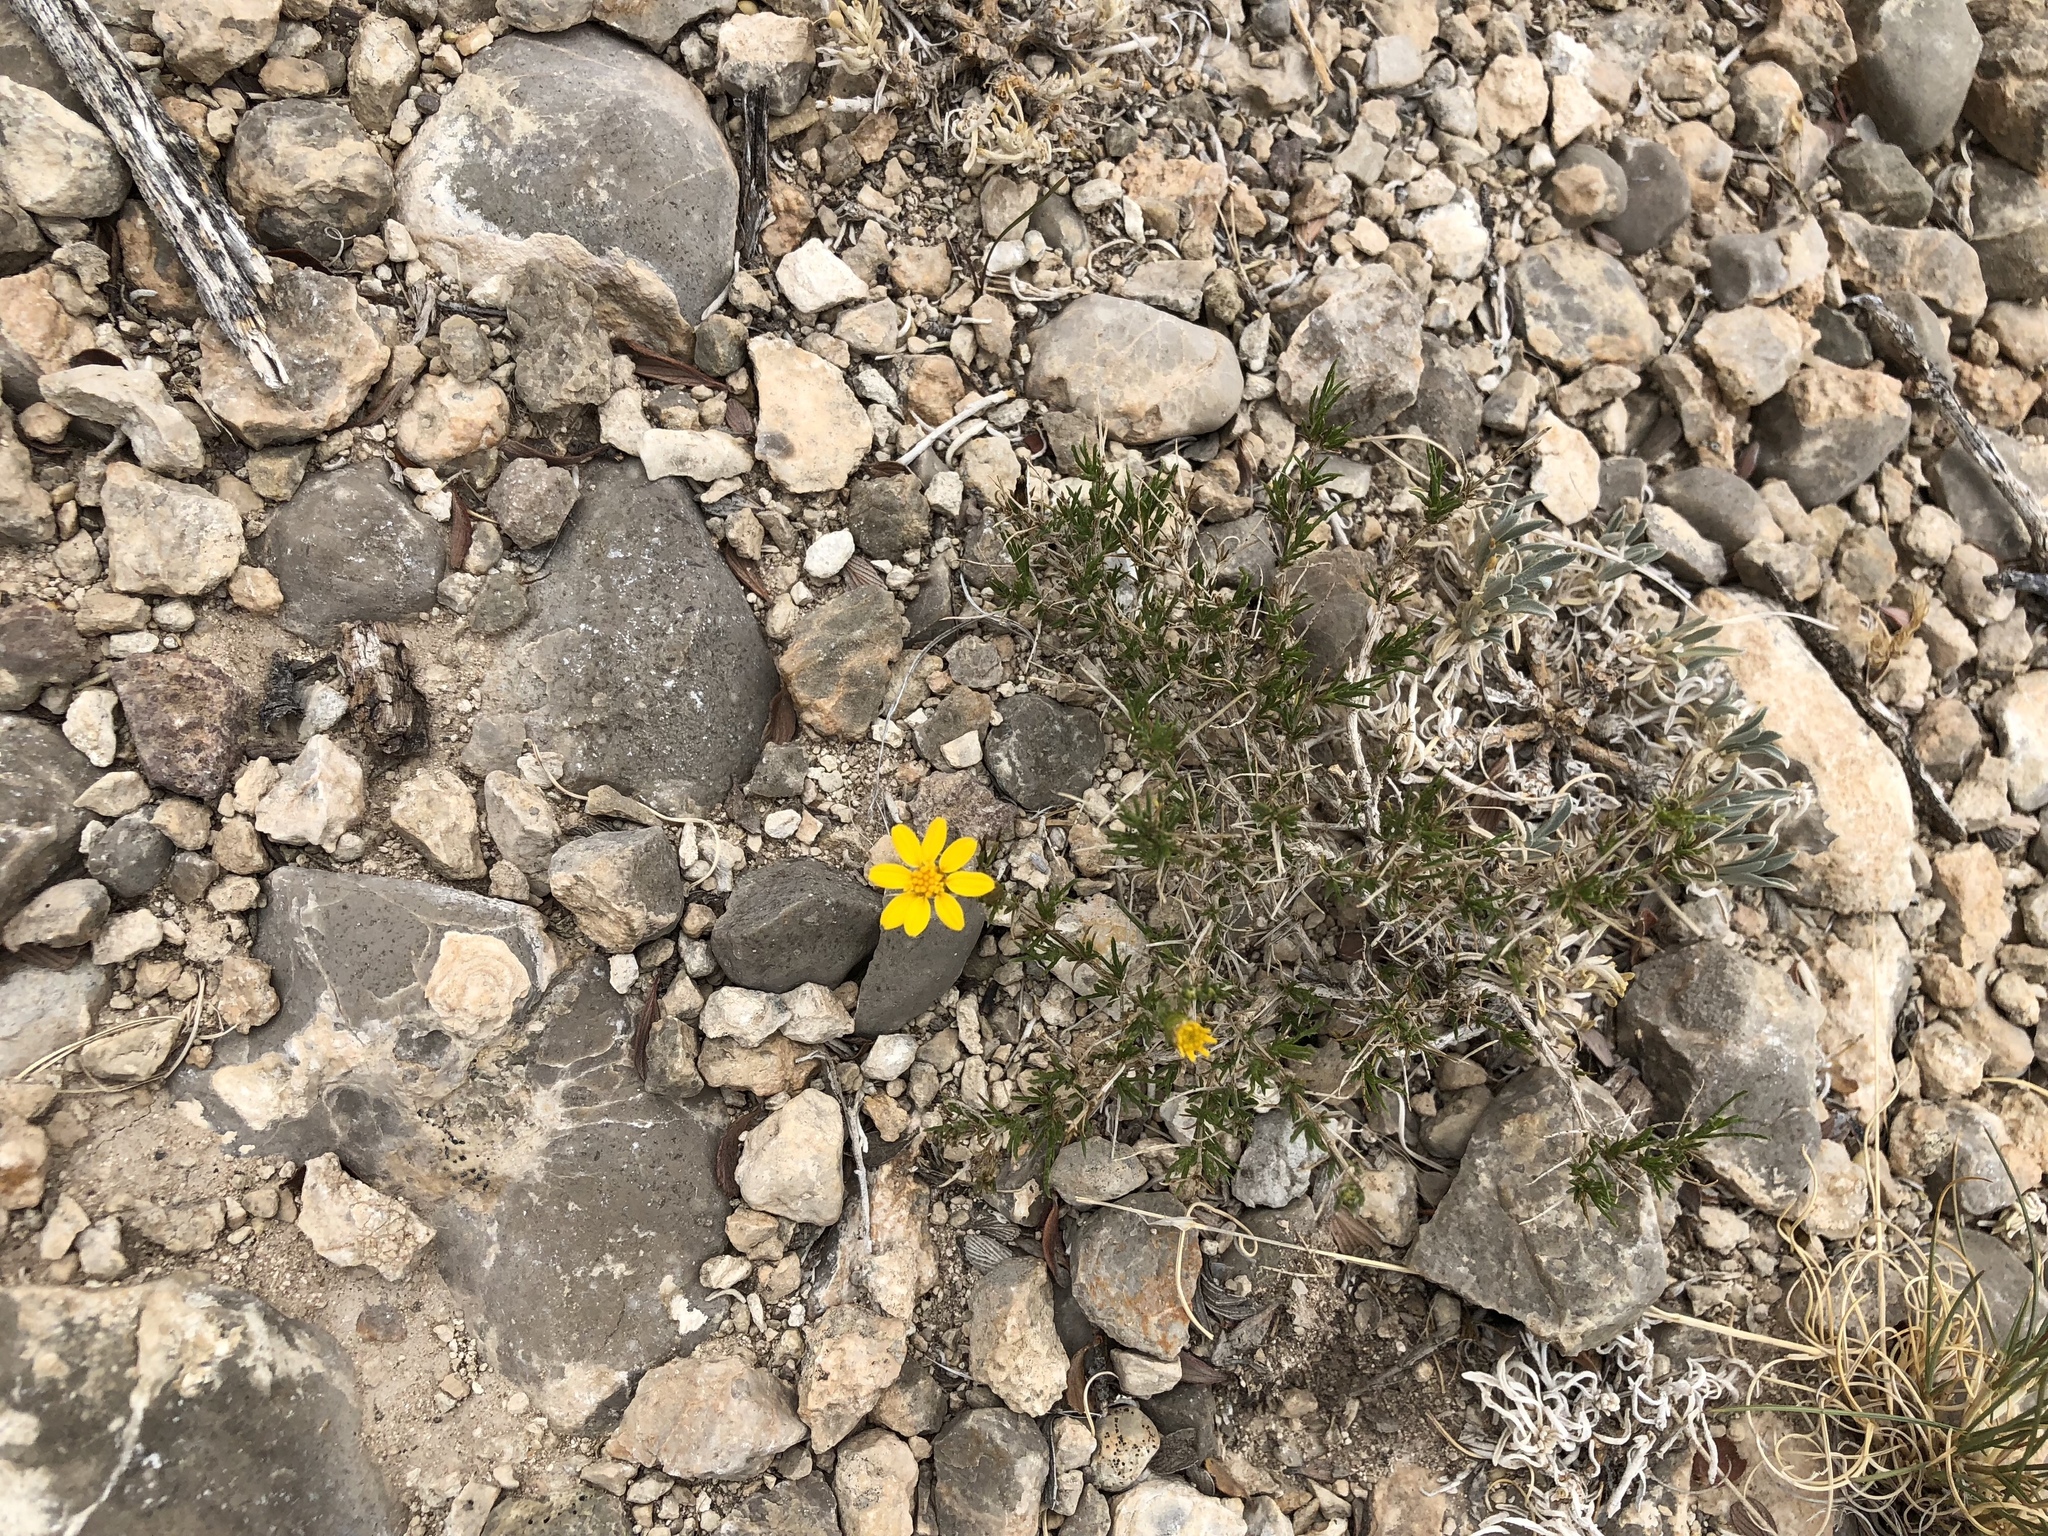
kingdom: Plantae
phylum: Tracheophyta
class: Magnoliopsida
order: Asterales
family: Asteraceae
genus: Thymophylla
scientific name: Thymophylla acerosa
